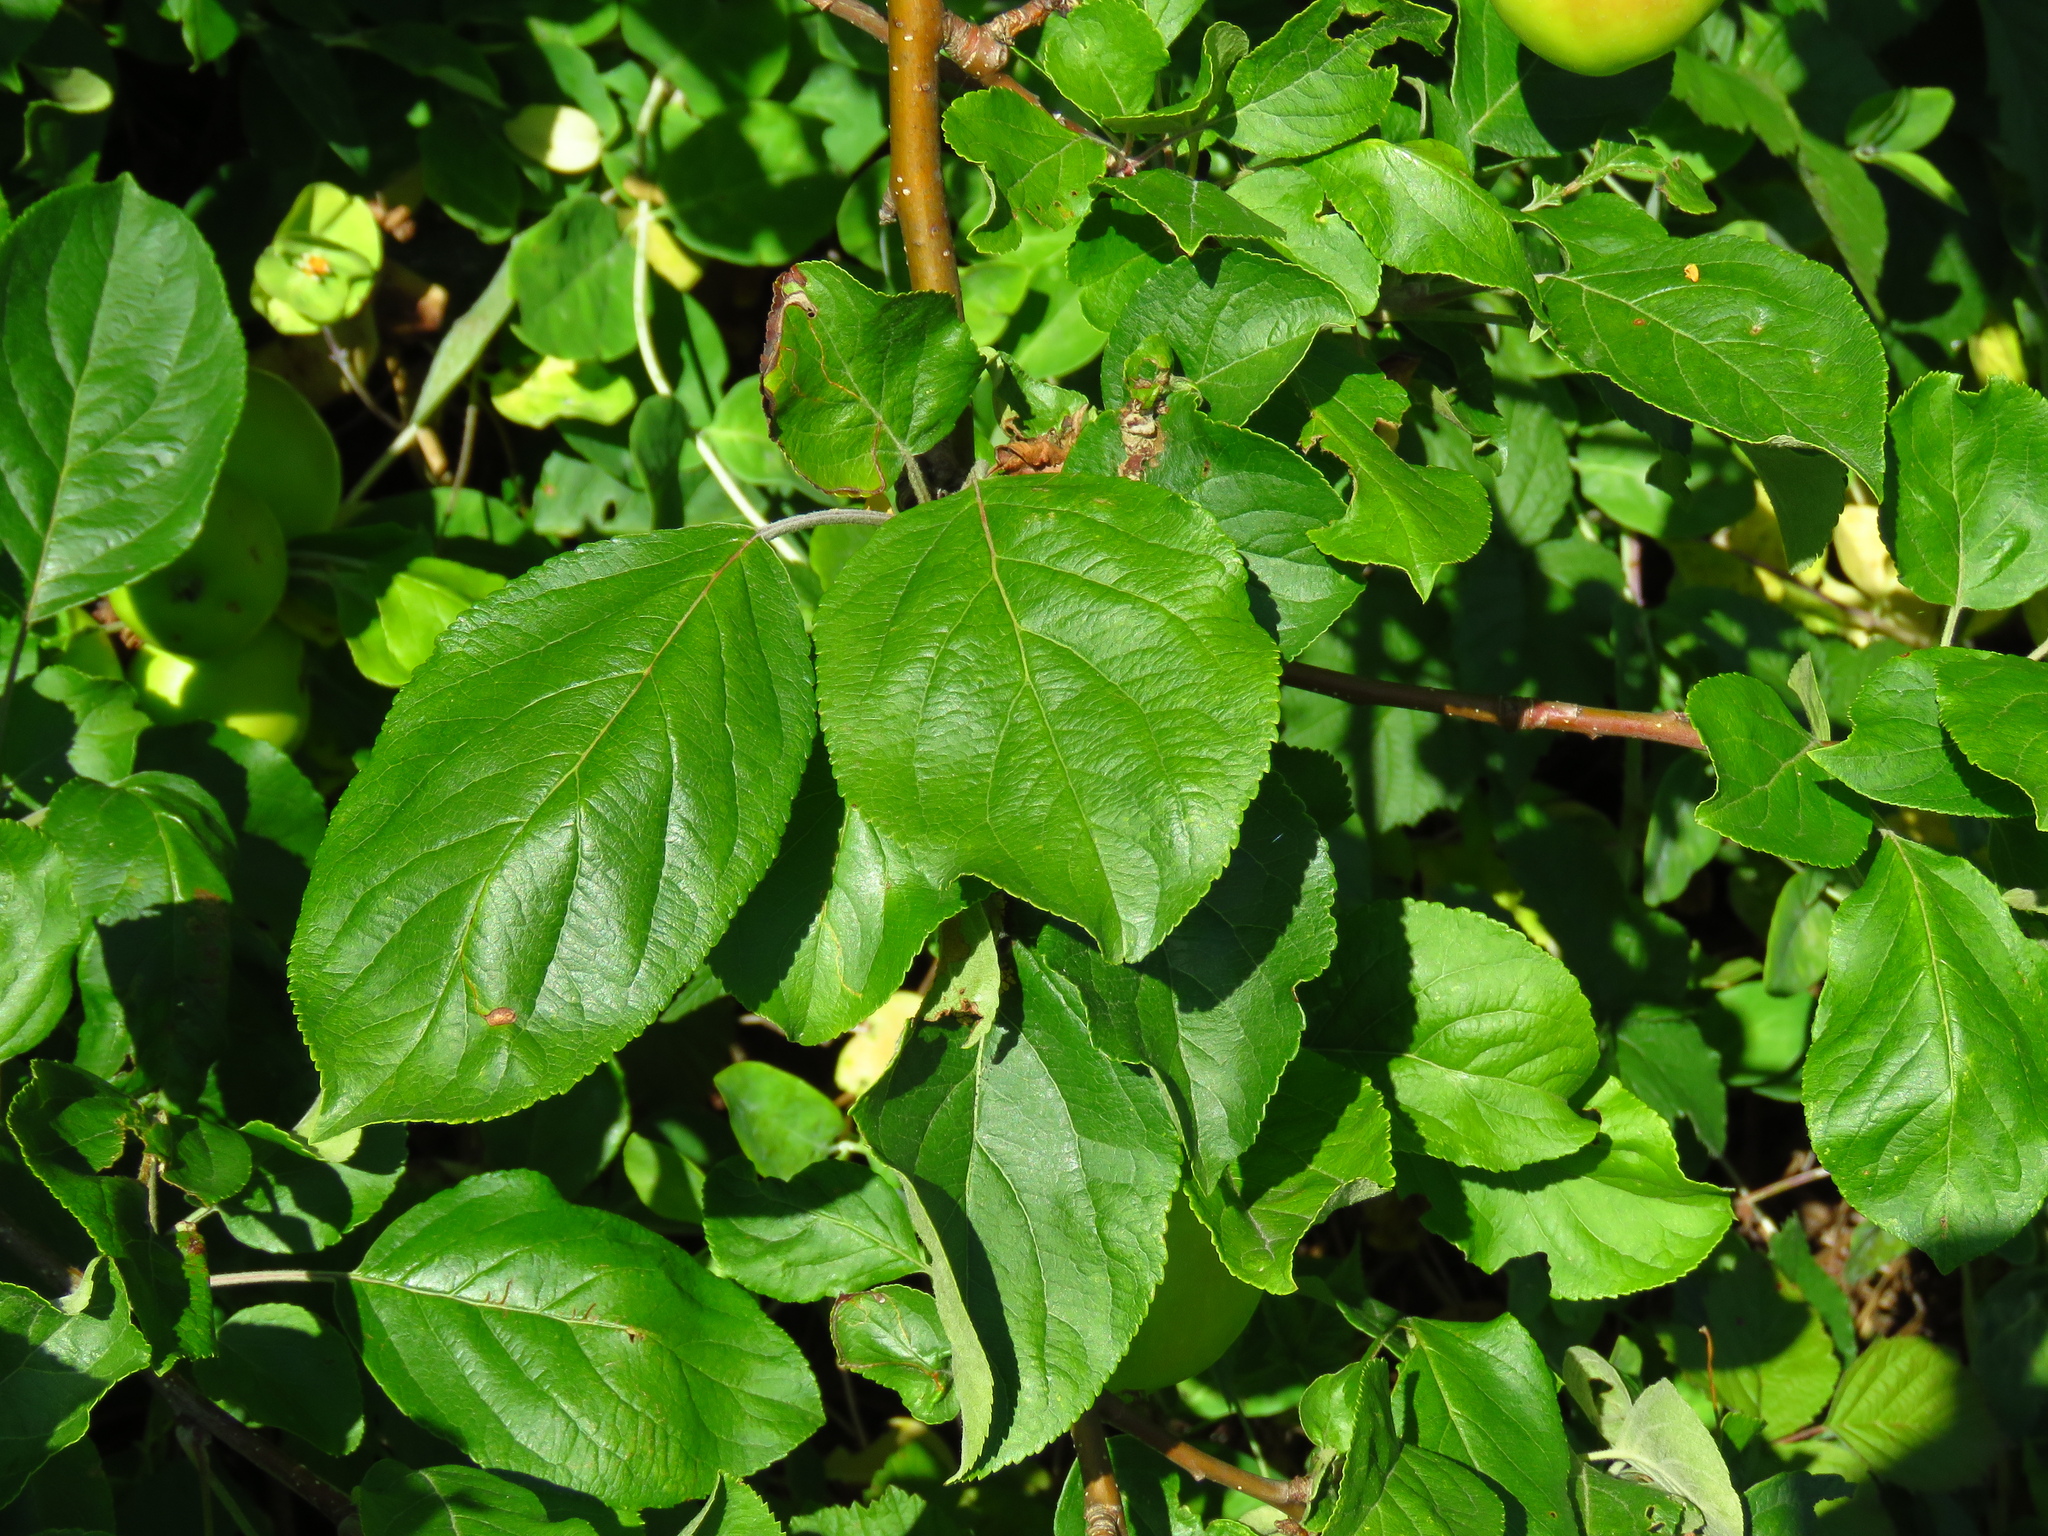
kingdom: Plantae
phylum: Tracheophyta
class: Magnoliopsida
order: Rosales
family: Rosaceae
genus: Malus
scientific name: Malus domestica
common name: Apple
